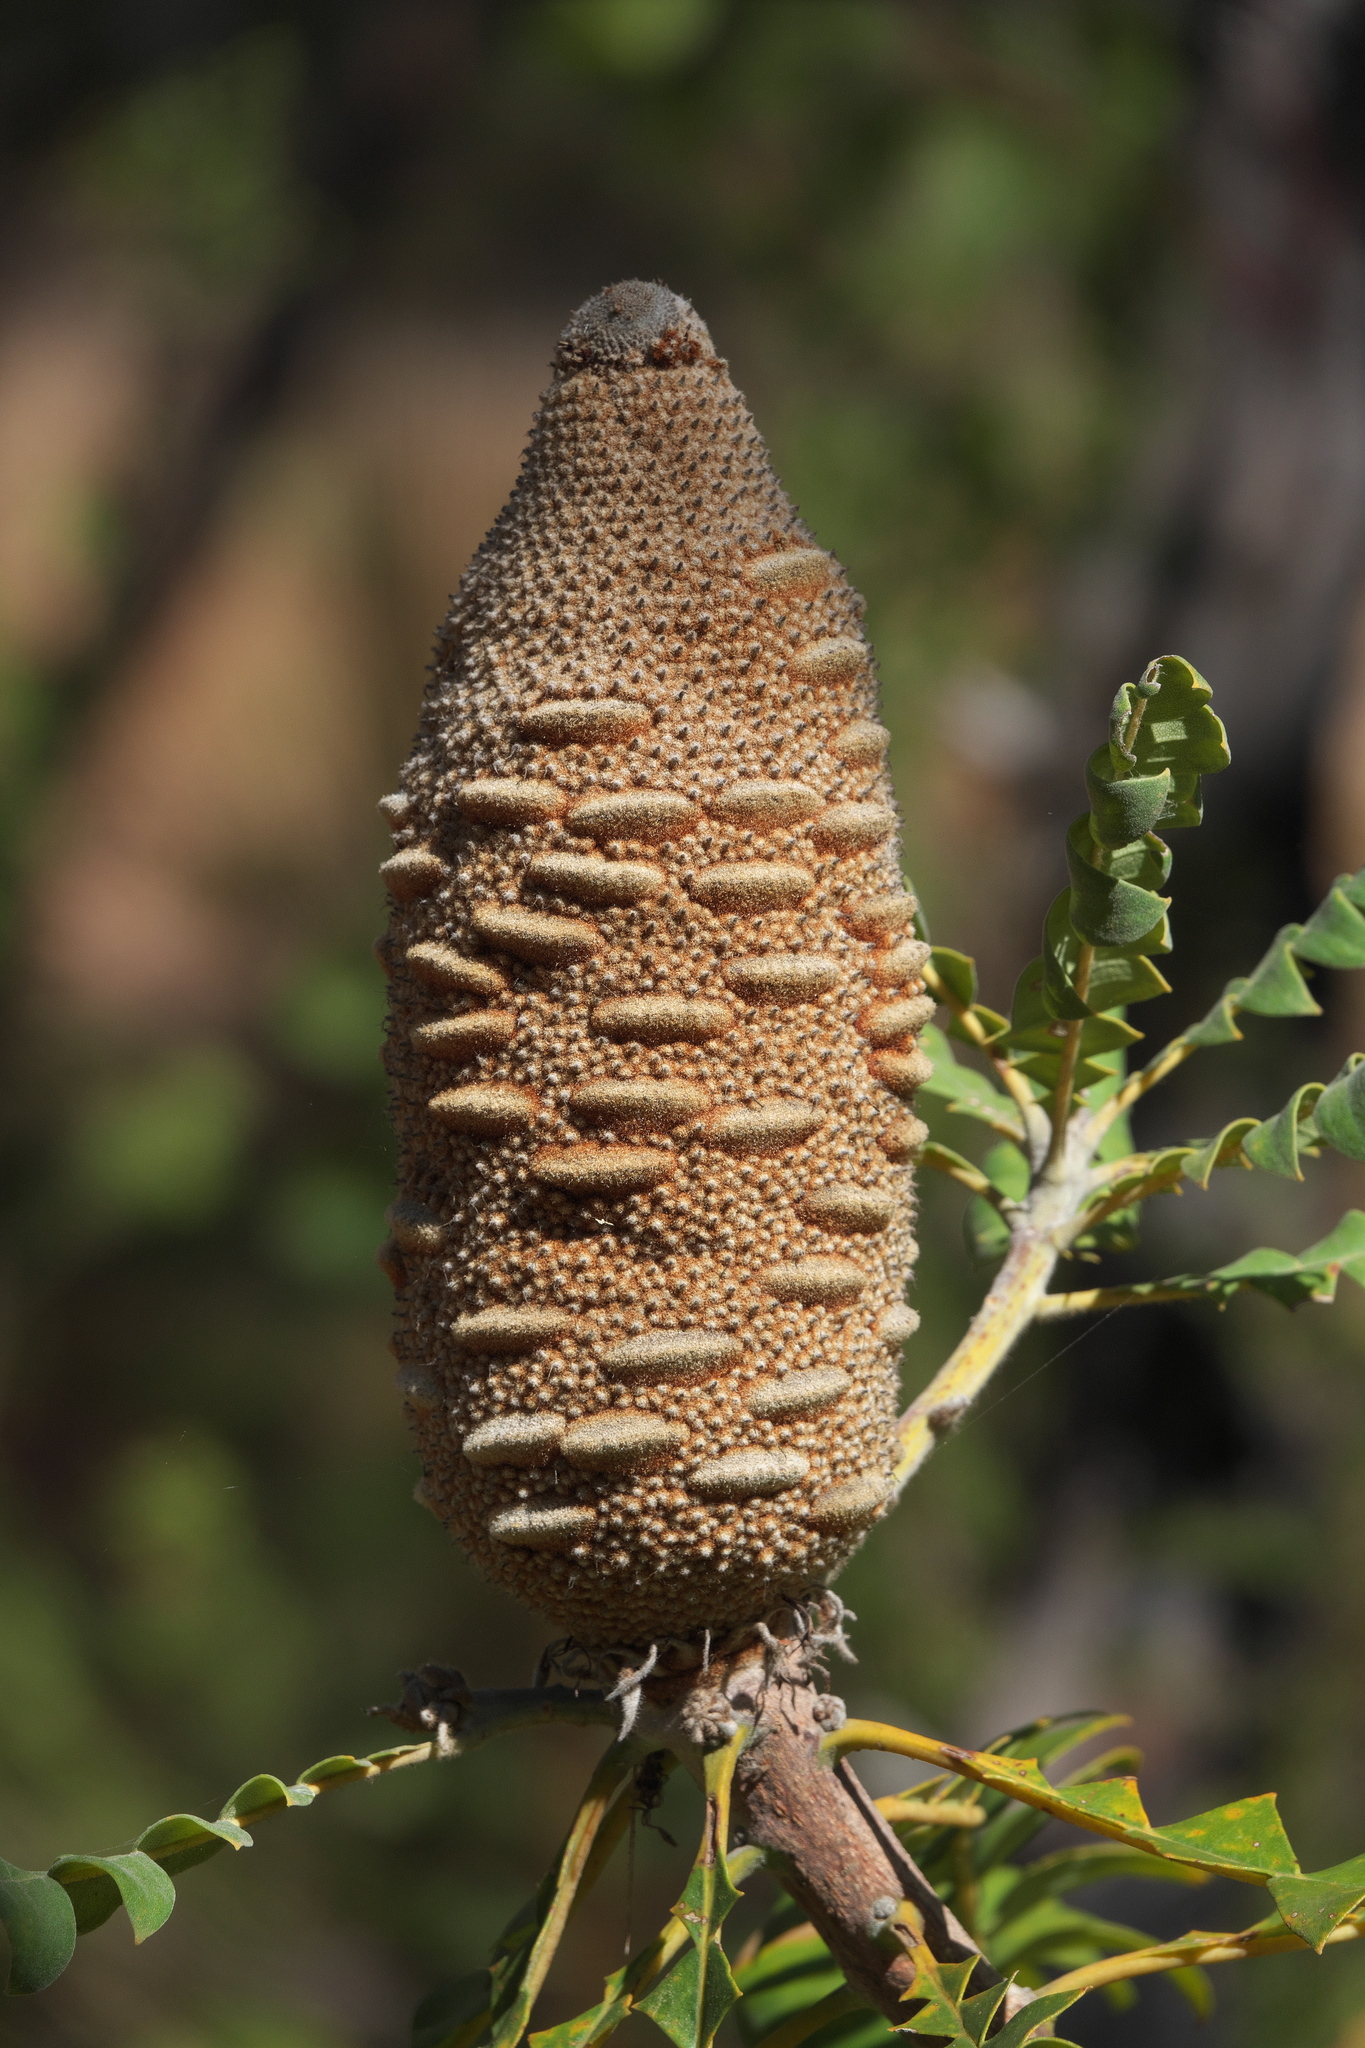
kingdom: Plantae
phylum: Tracheophyta
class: Magnoliopsida
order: Proteales
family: Proteaceae
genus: Banksia
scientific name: Banksia grandis
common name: Giant banksia
